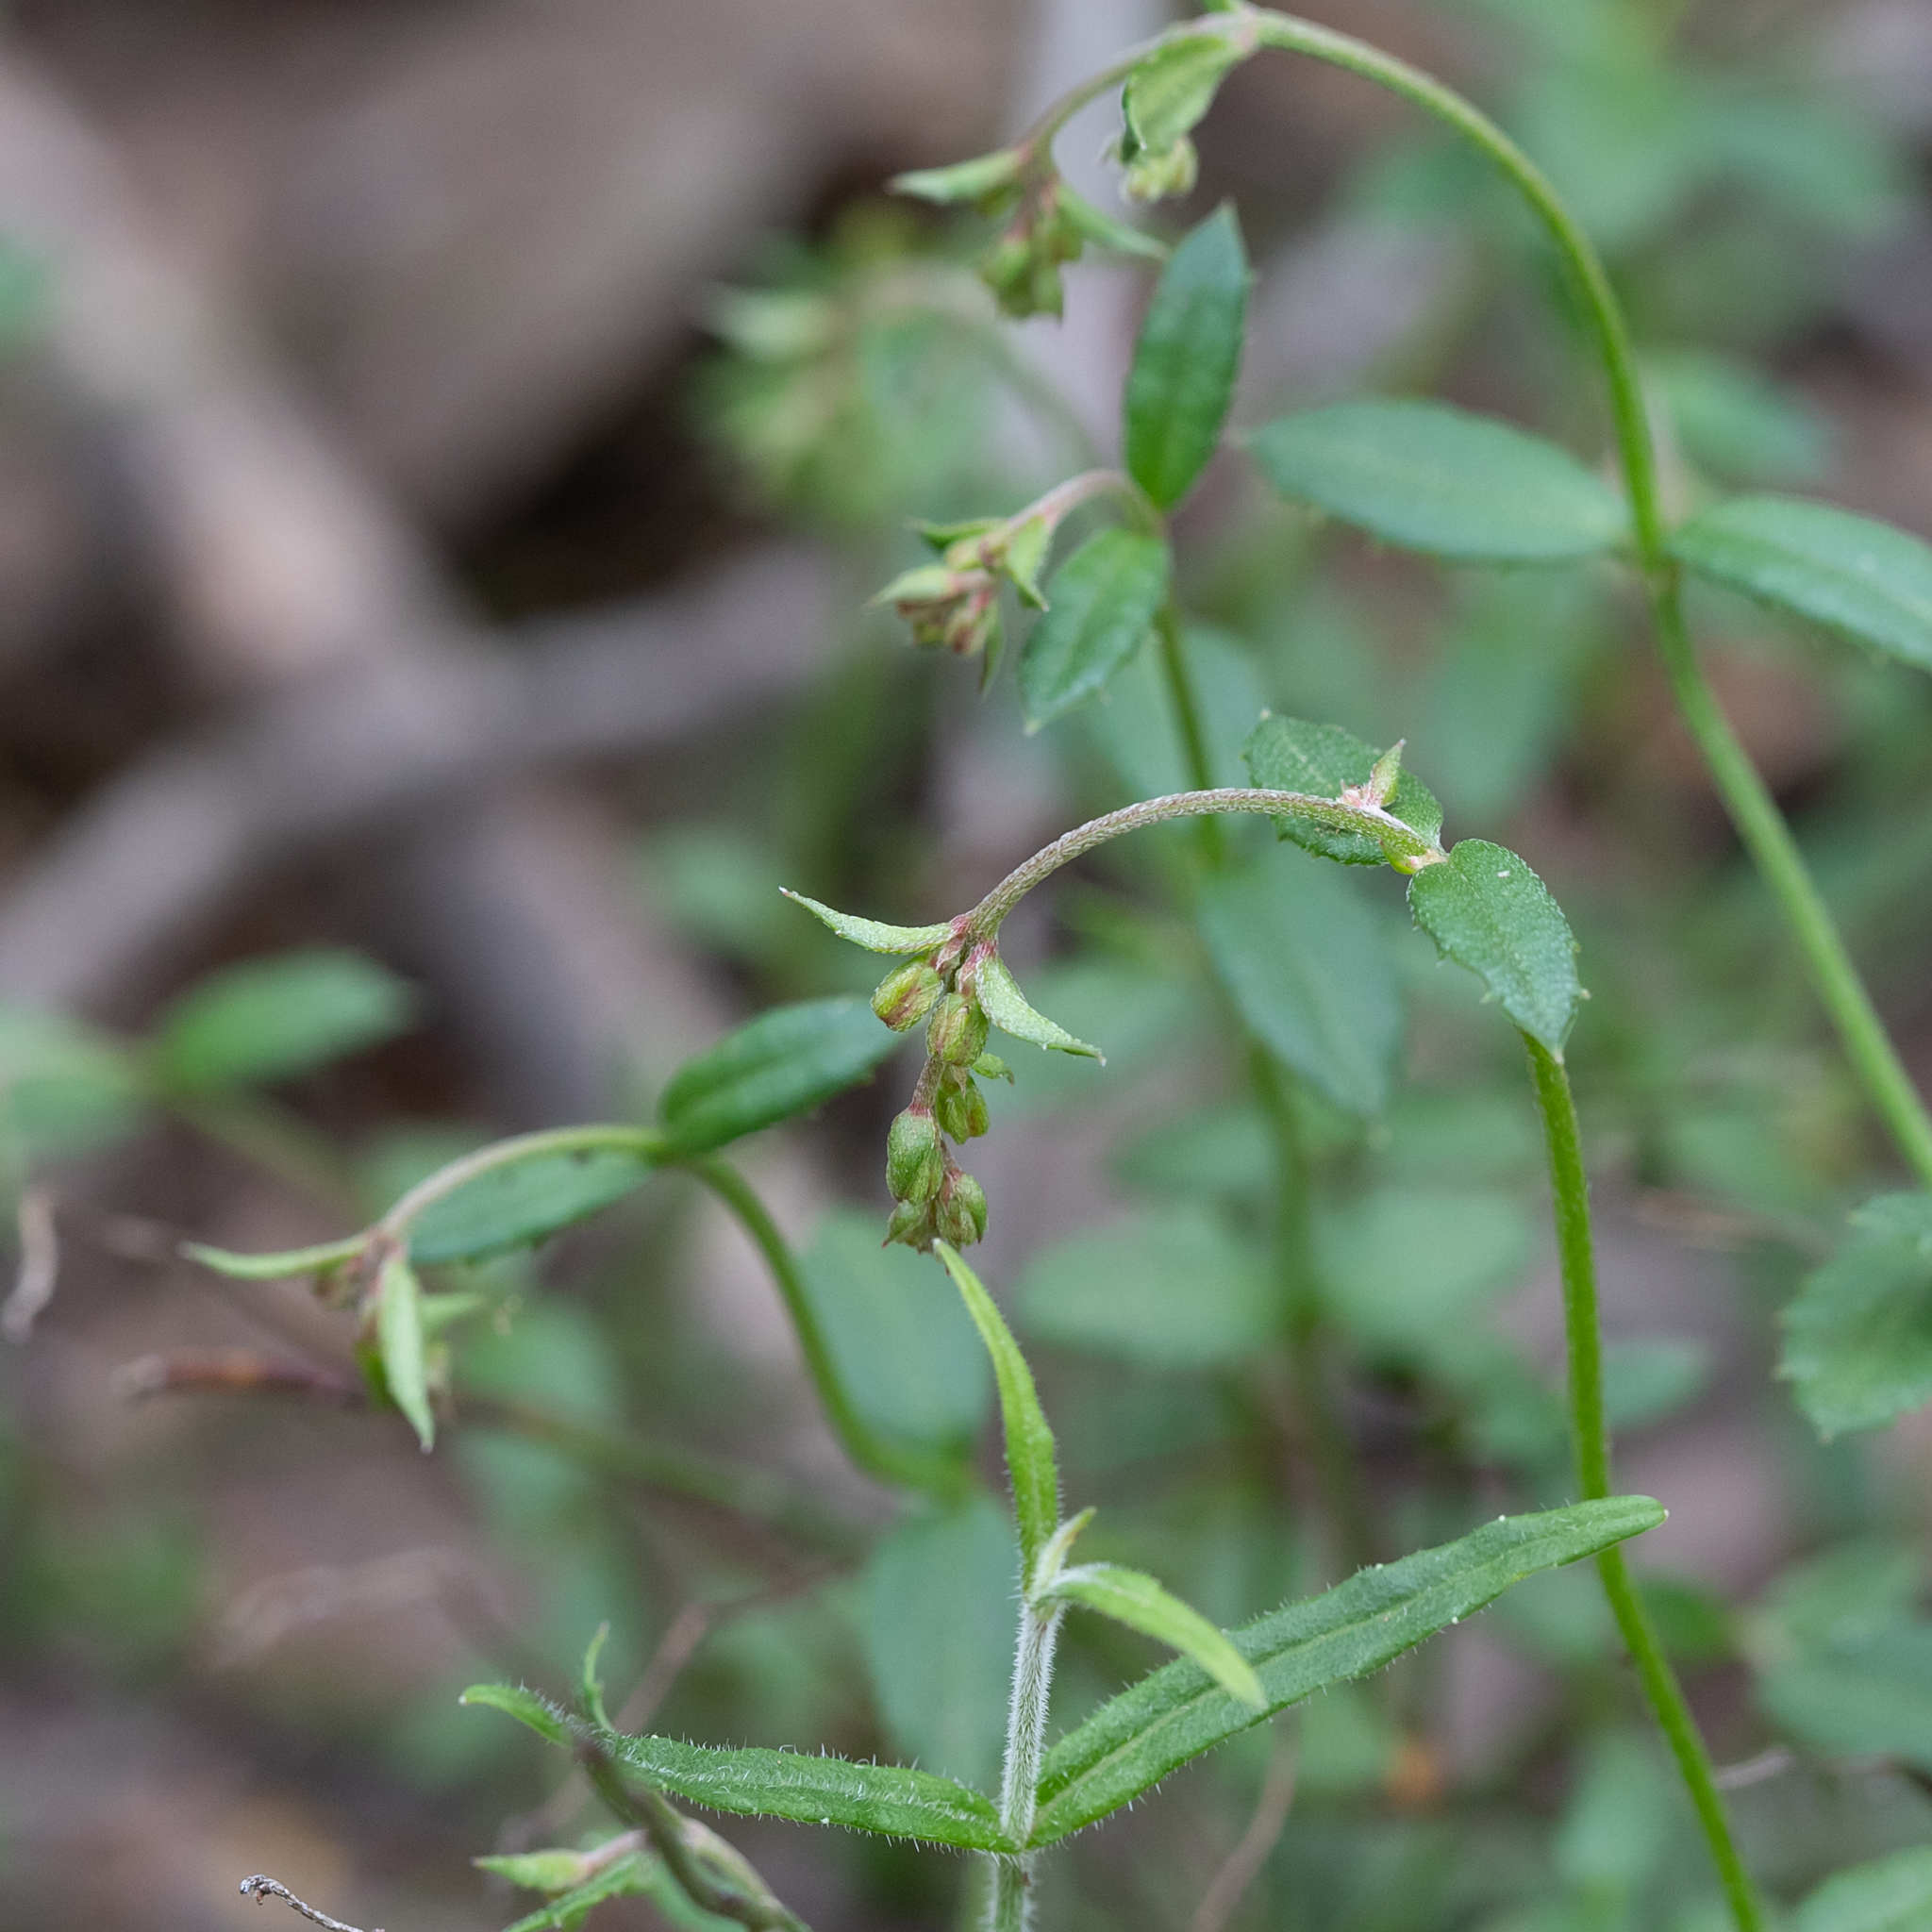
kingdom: Plantae
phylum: Tracheophyta
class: Magnoliopsida
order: Saxifragales
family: Haloragaceae
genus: Gonocarpus
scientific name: Gonocarpus tetragynus
